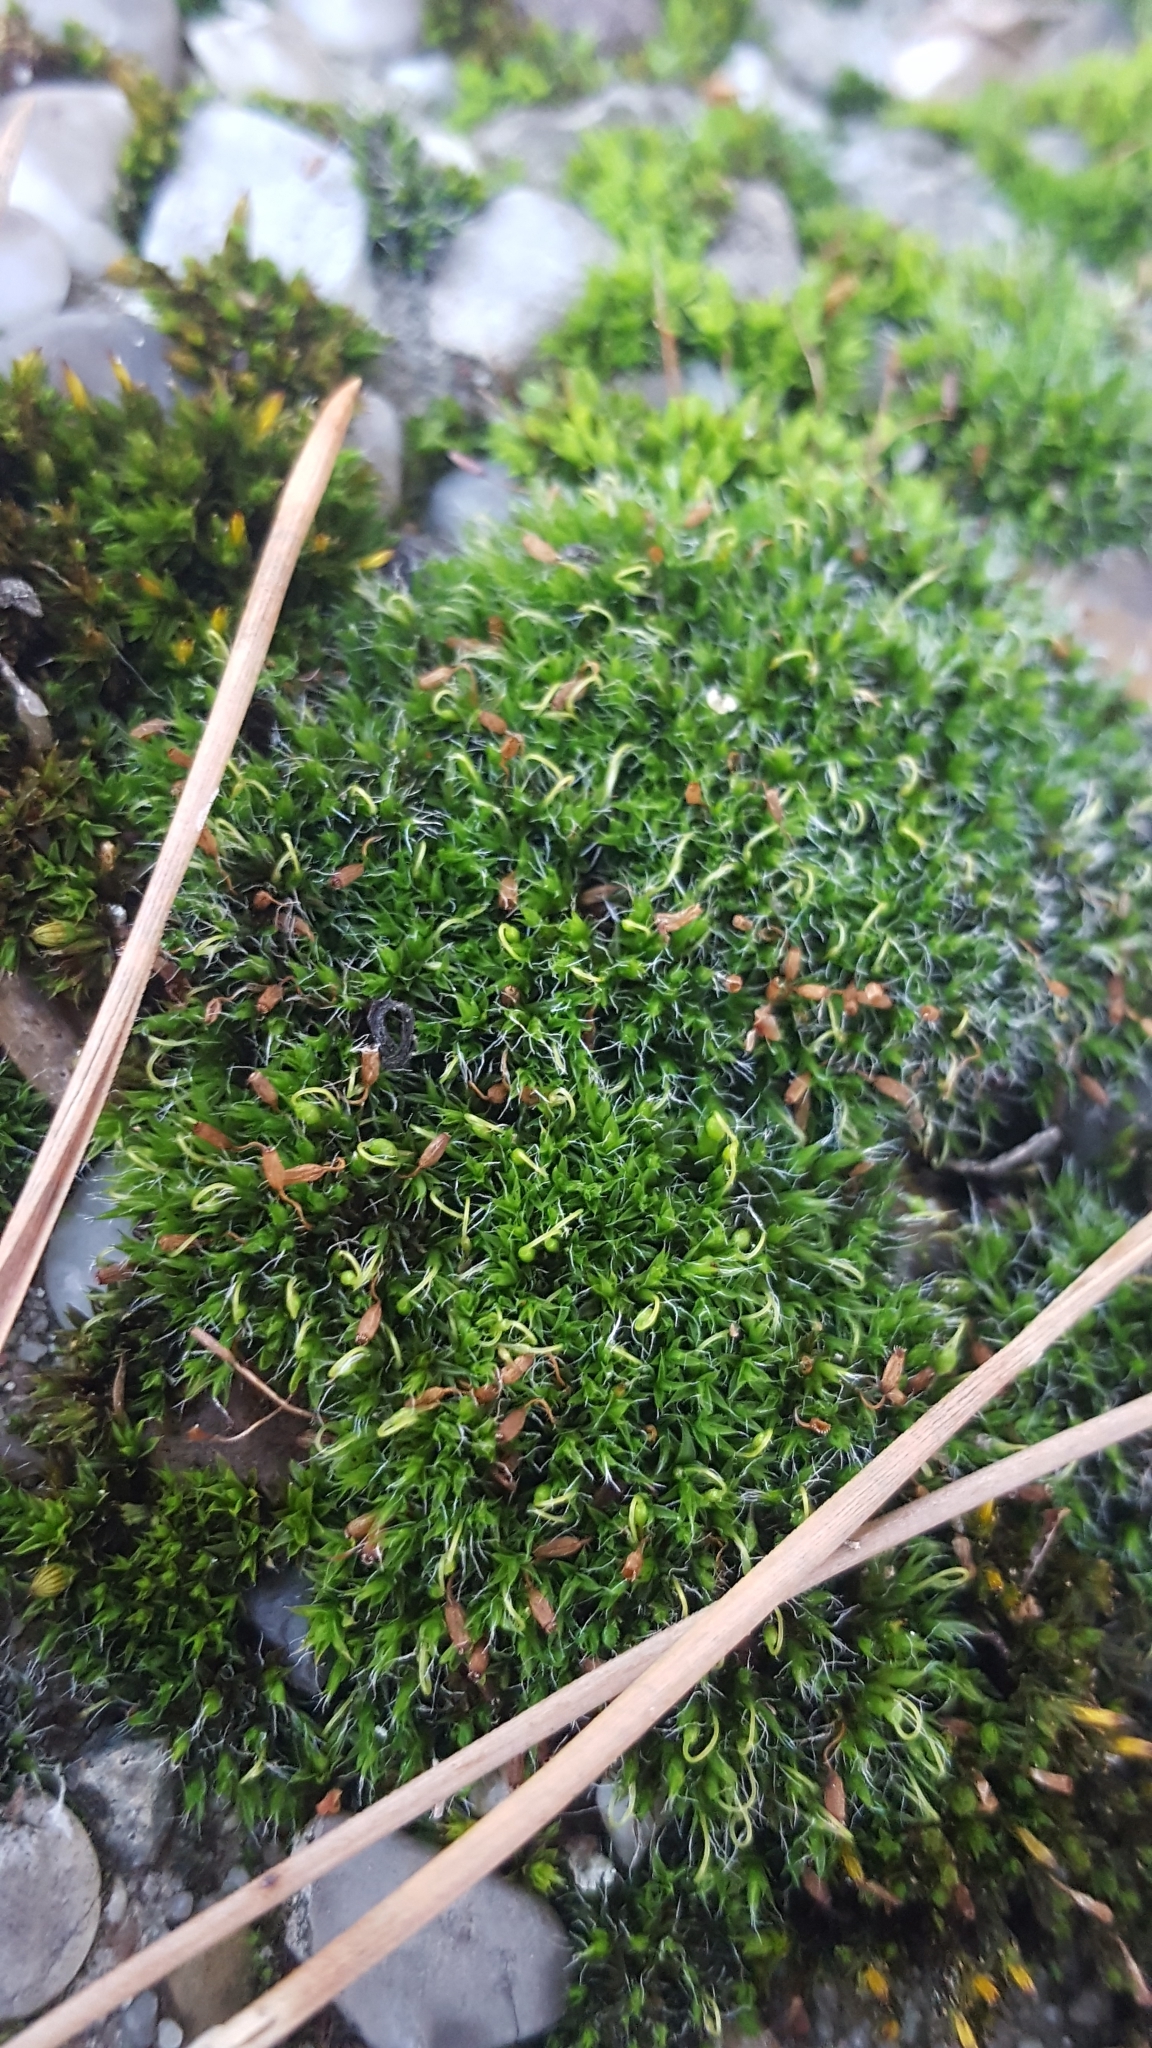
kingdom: Plantae
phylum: Bryophyta
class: Bryopsida
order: Grimmiales
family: Grimmiaceae
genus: Grimmia
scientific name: Grimmia pulvinata
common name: Grey-cushioned grimmia
